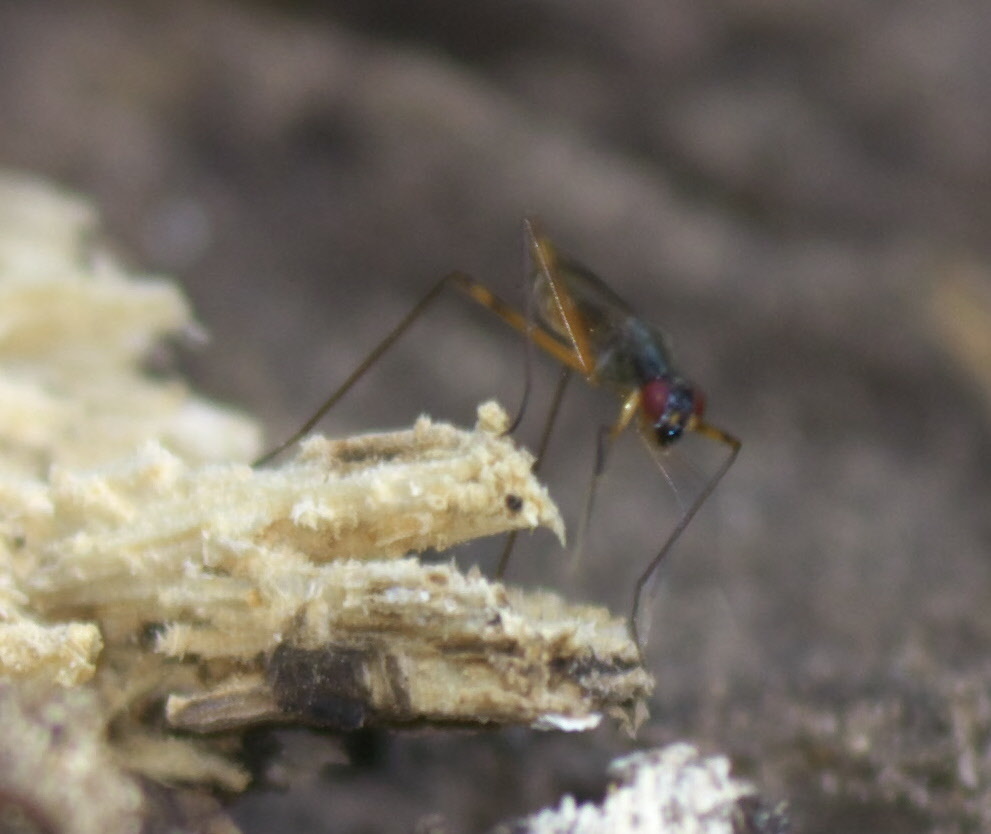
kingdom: Animalia
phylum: Arthropoda
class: Insecta
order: Diptera
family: Micropezidae
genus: Rainieria
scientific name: Rainieria antennaepes
